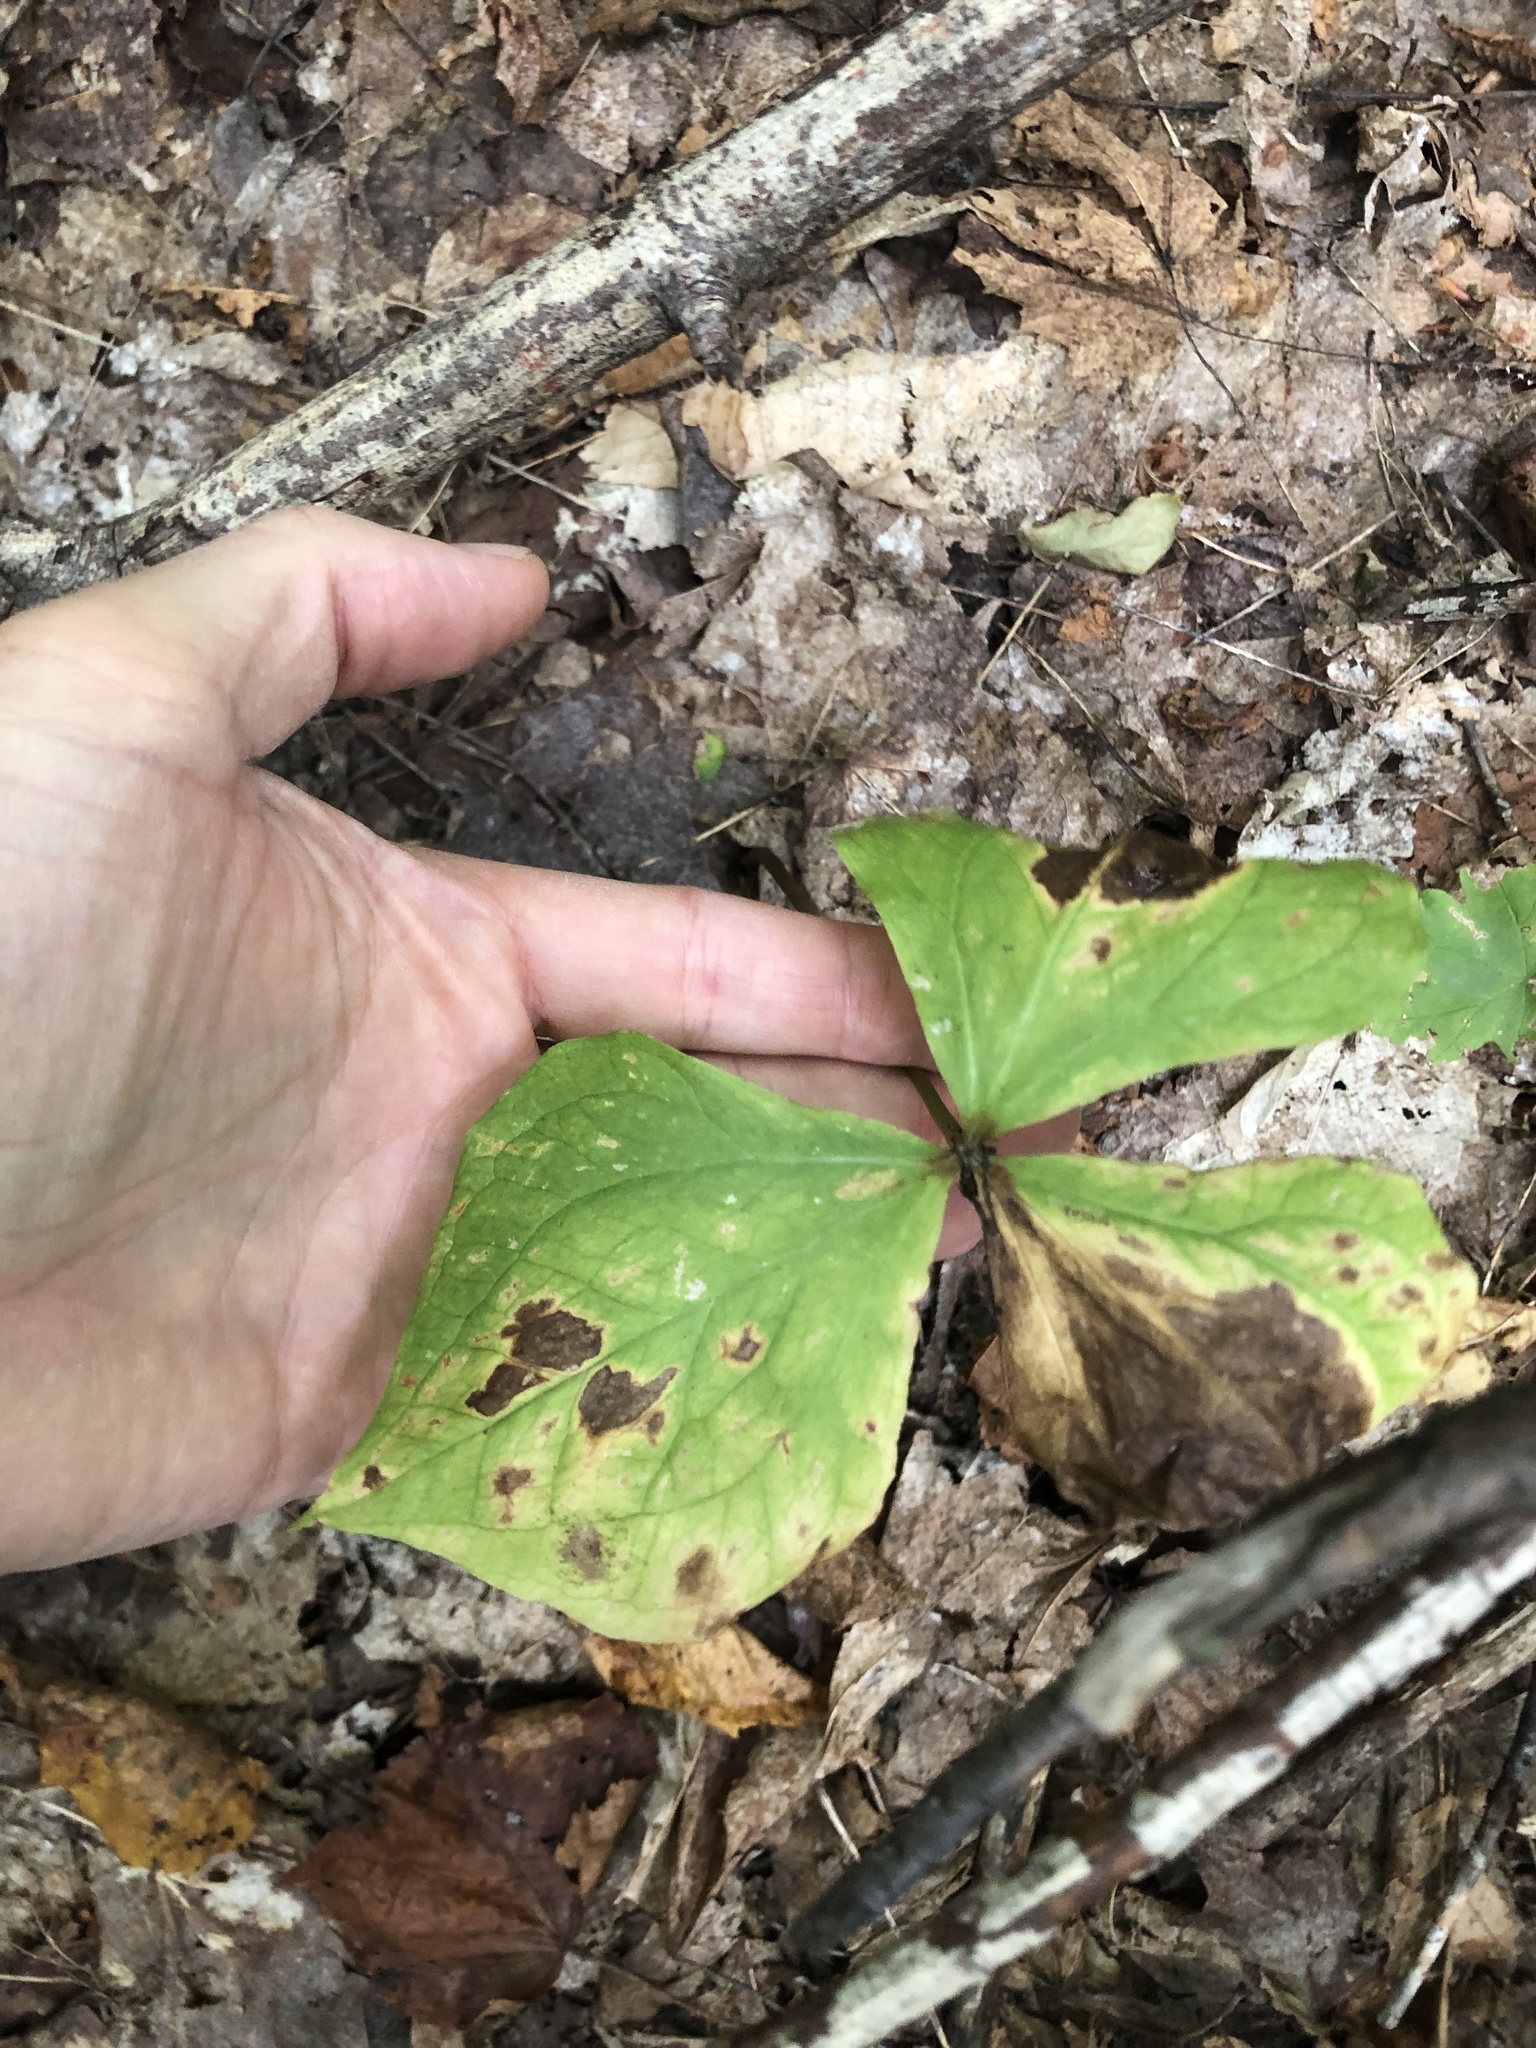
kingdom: Plantae
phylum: Tracheophyta
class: Liliopsida
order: Liliales
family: Melanthiaceae
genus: Trillium
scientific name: Trillium erectum
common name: Purple trillium
